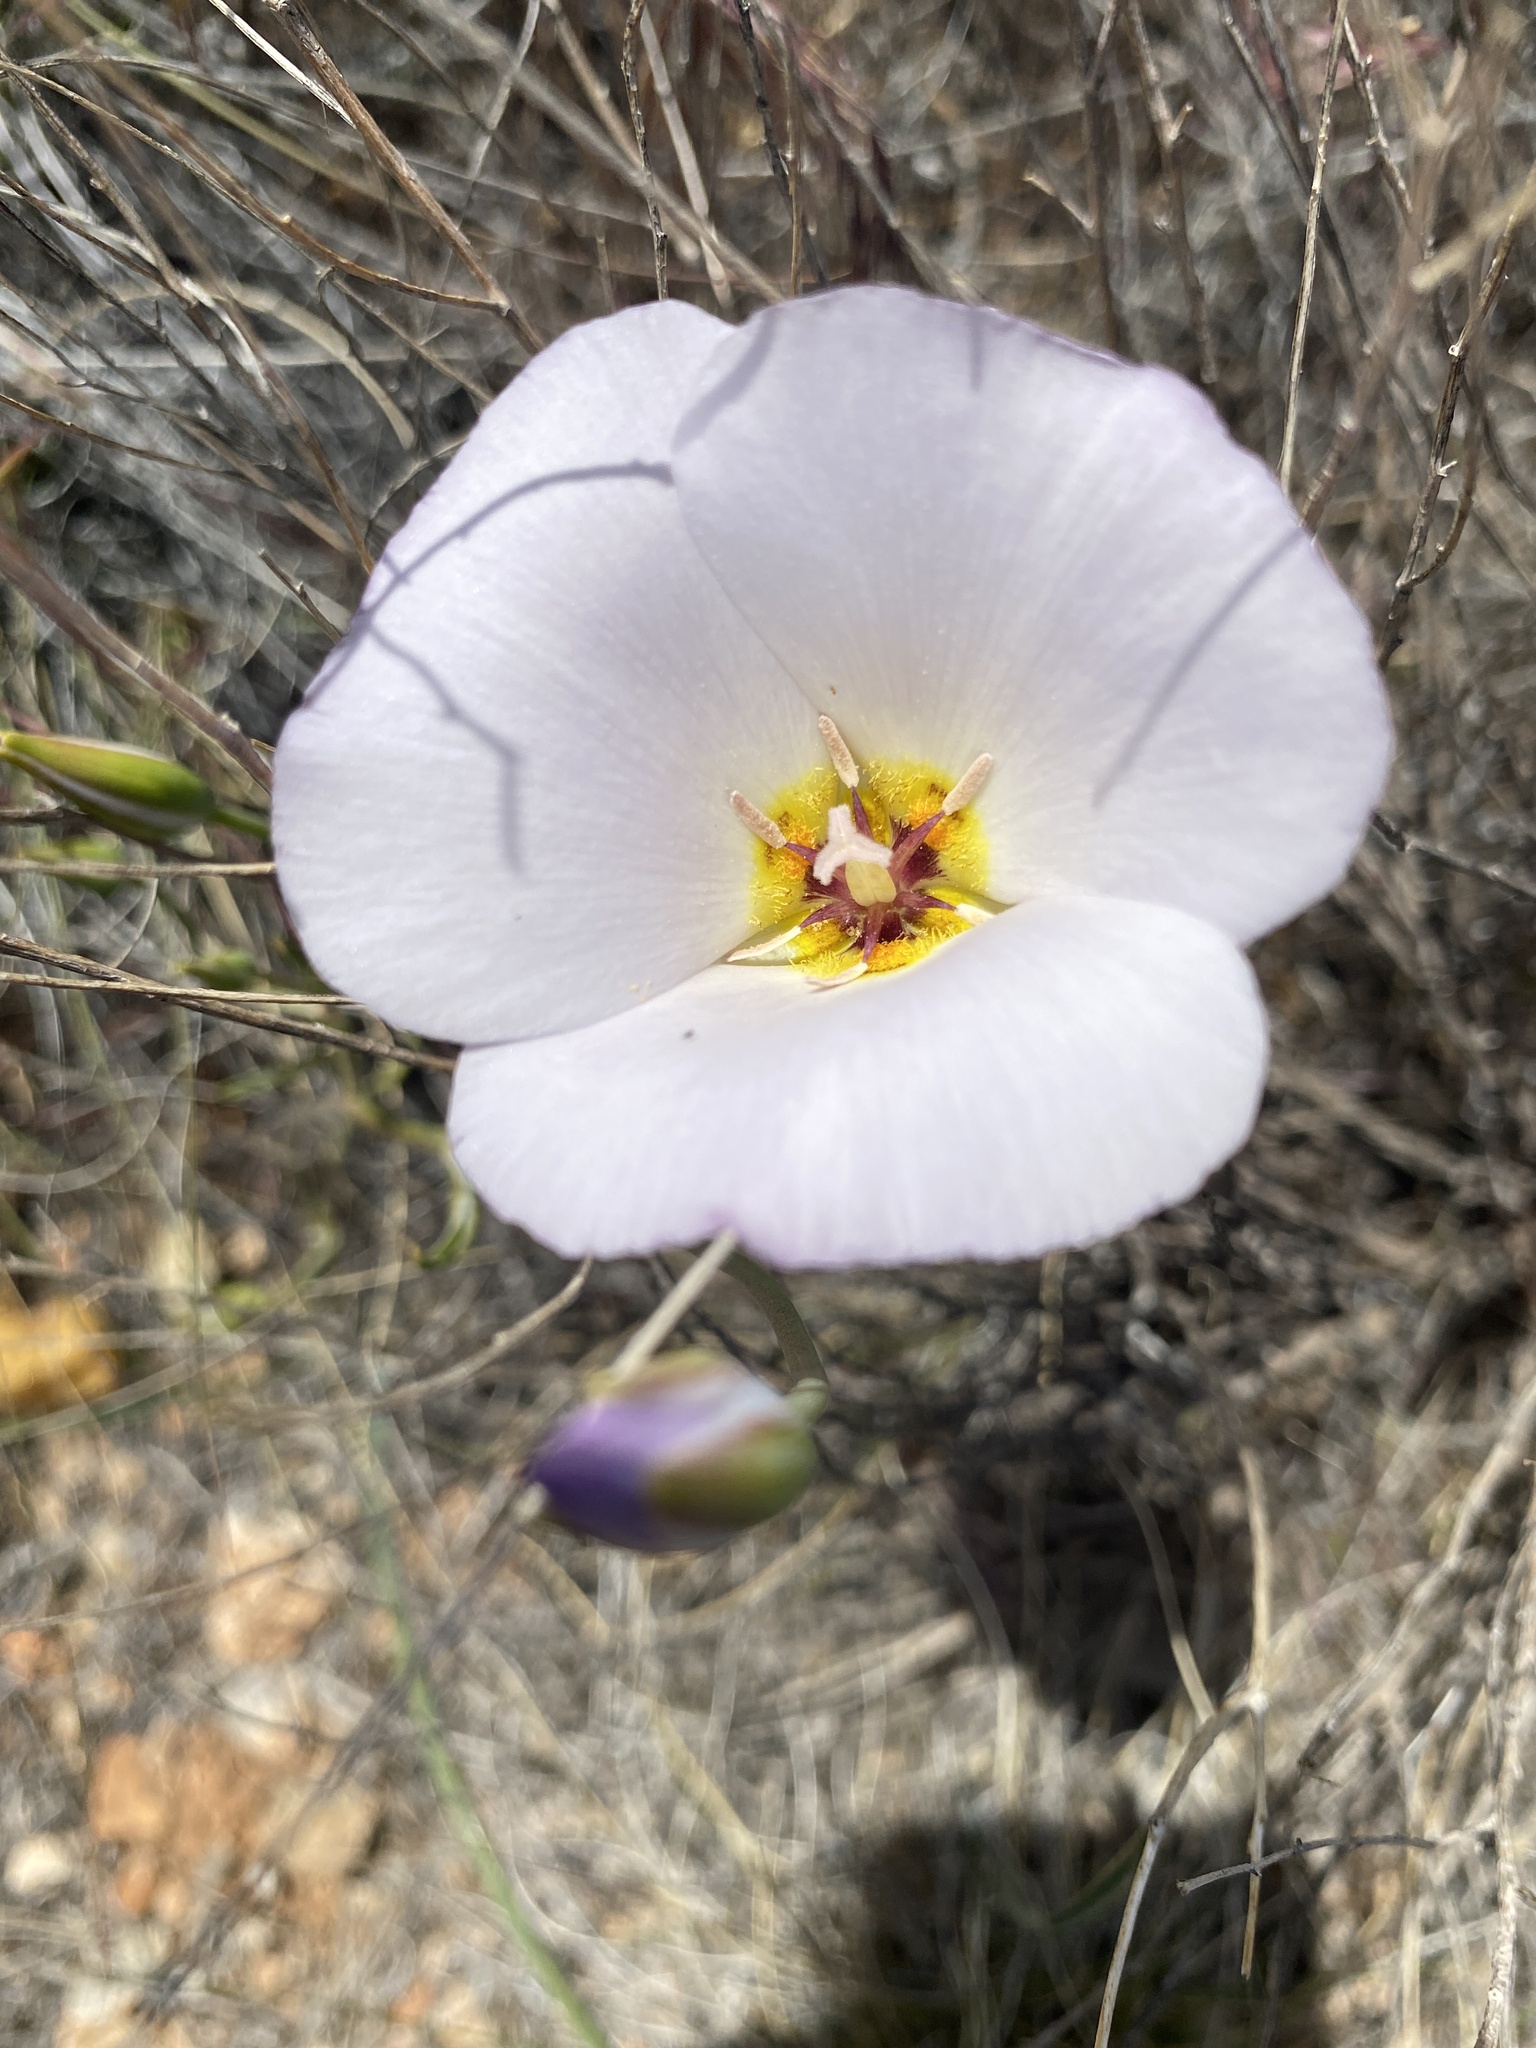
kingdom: Plantae
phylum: Tracheophyta
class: Liliopsida
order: Liliales
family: Liliaceae
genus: Calochortus
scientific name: Calochortus flexuosus
